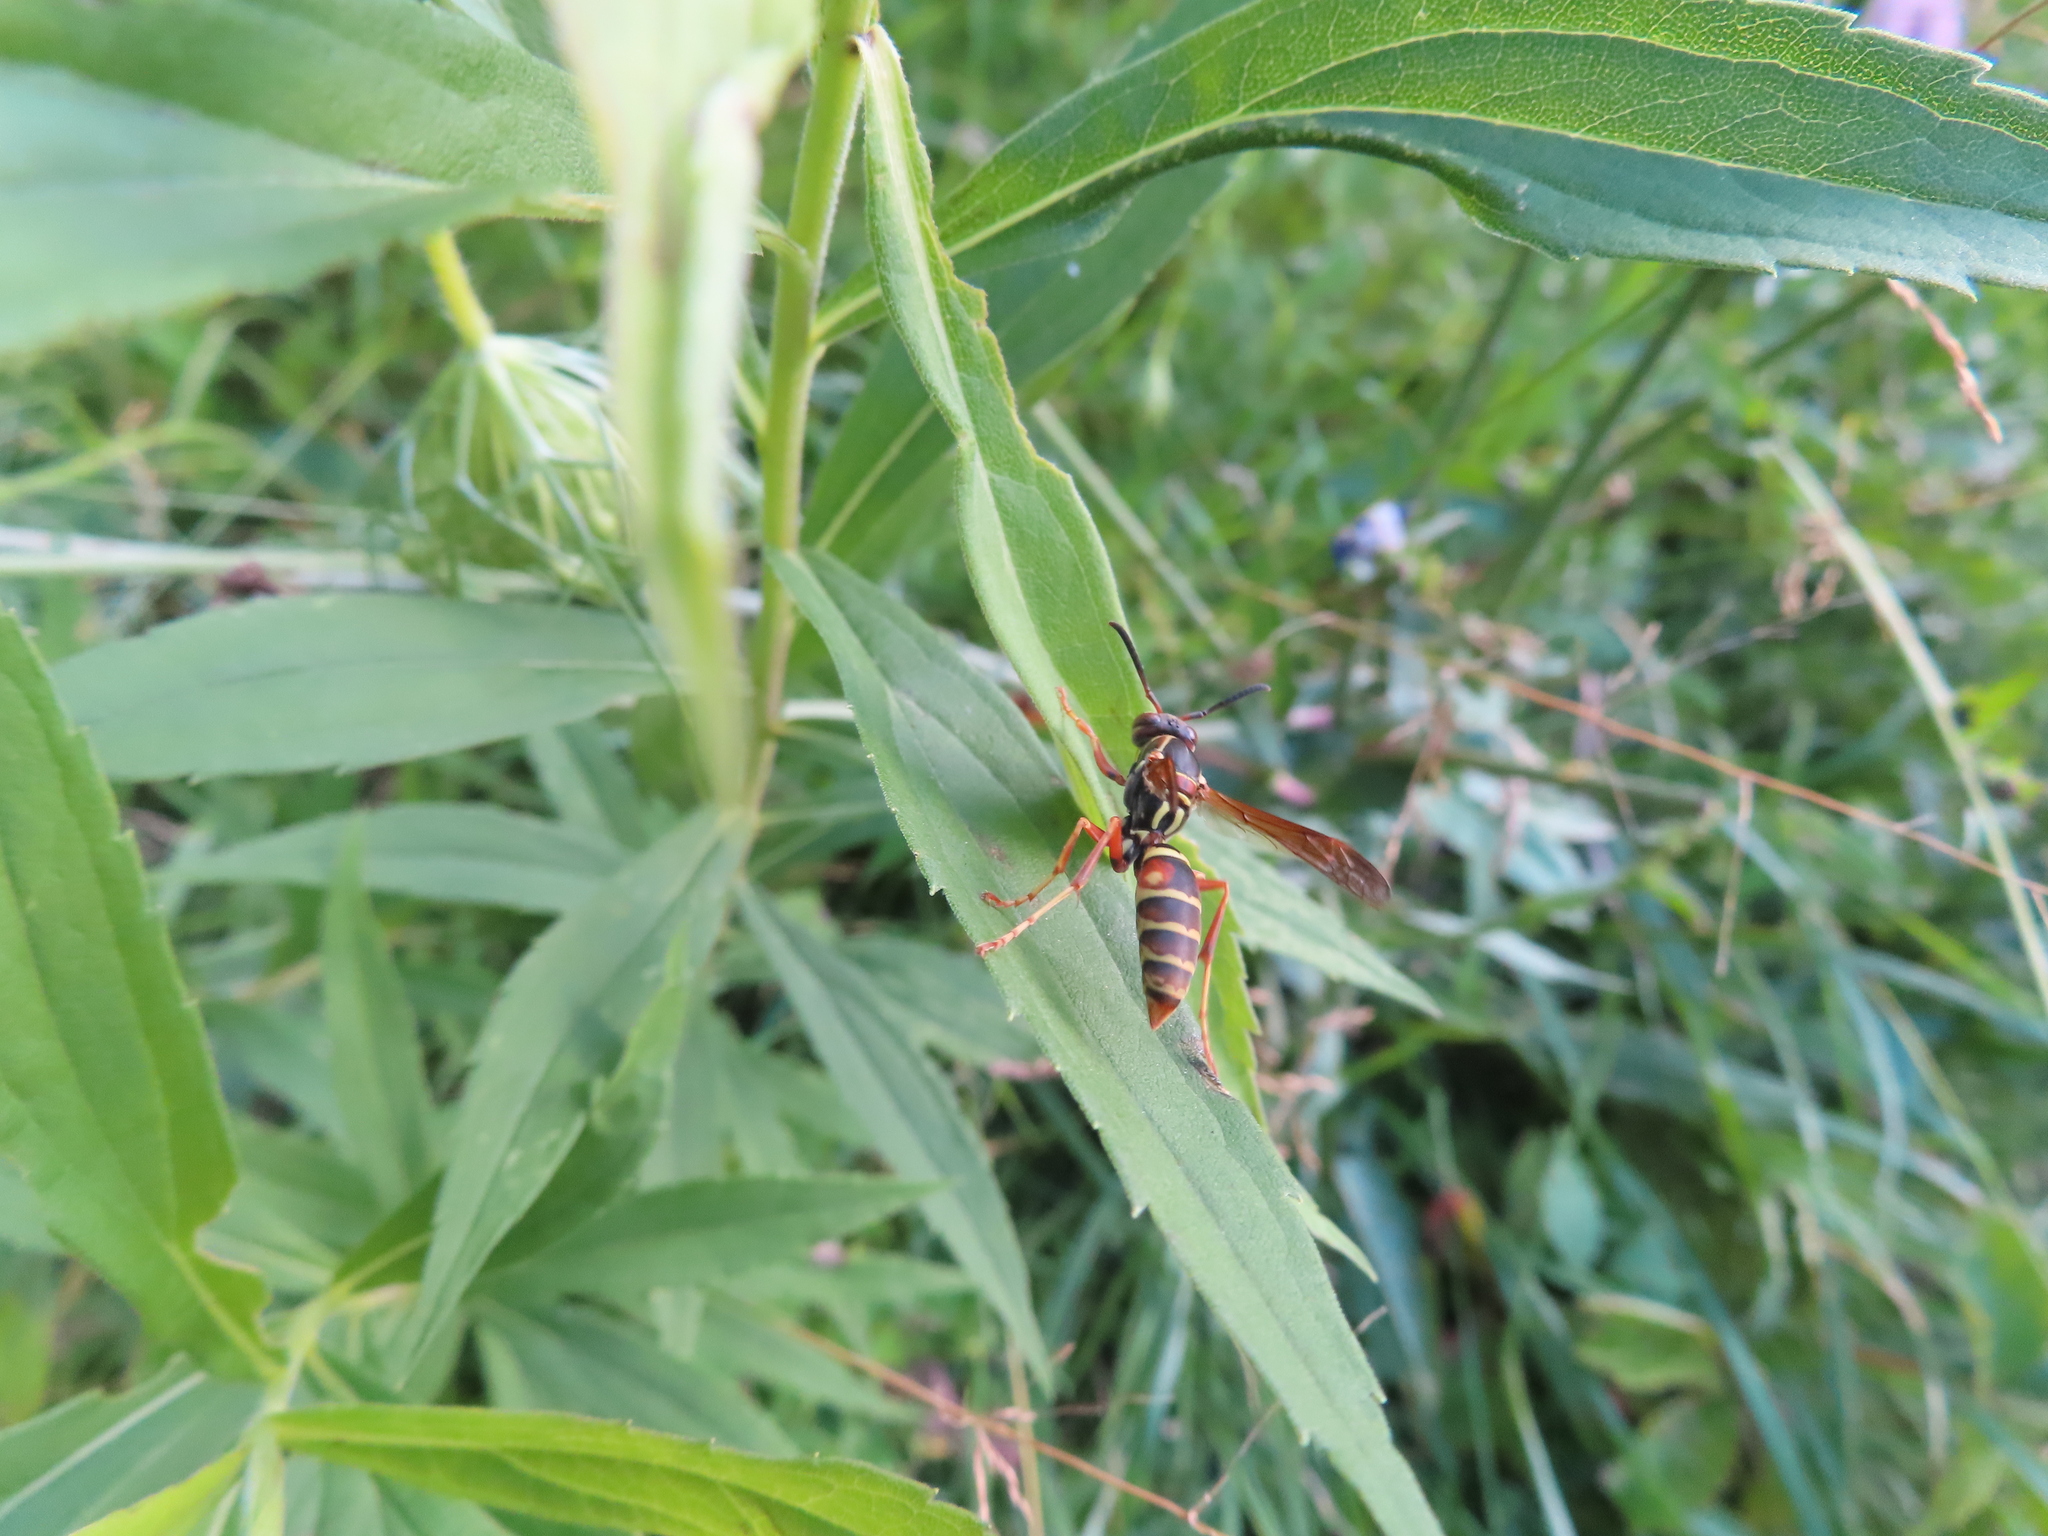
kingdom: Animalia
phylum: Arthropoda
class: Insecta
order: Hymenoptera
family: Eumenidae
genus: Polistes
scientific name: Polistes fuscatus
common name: Dark paper wasp
